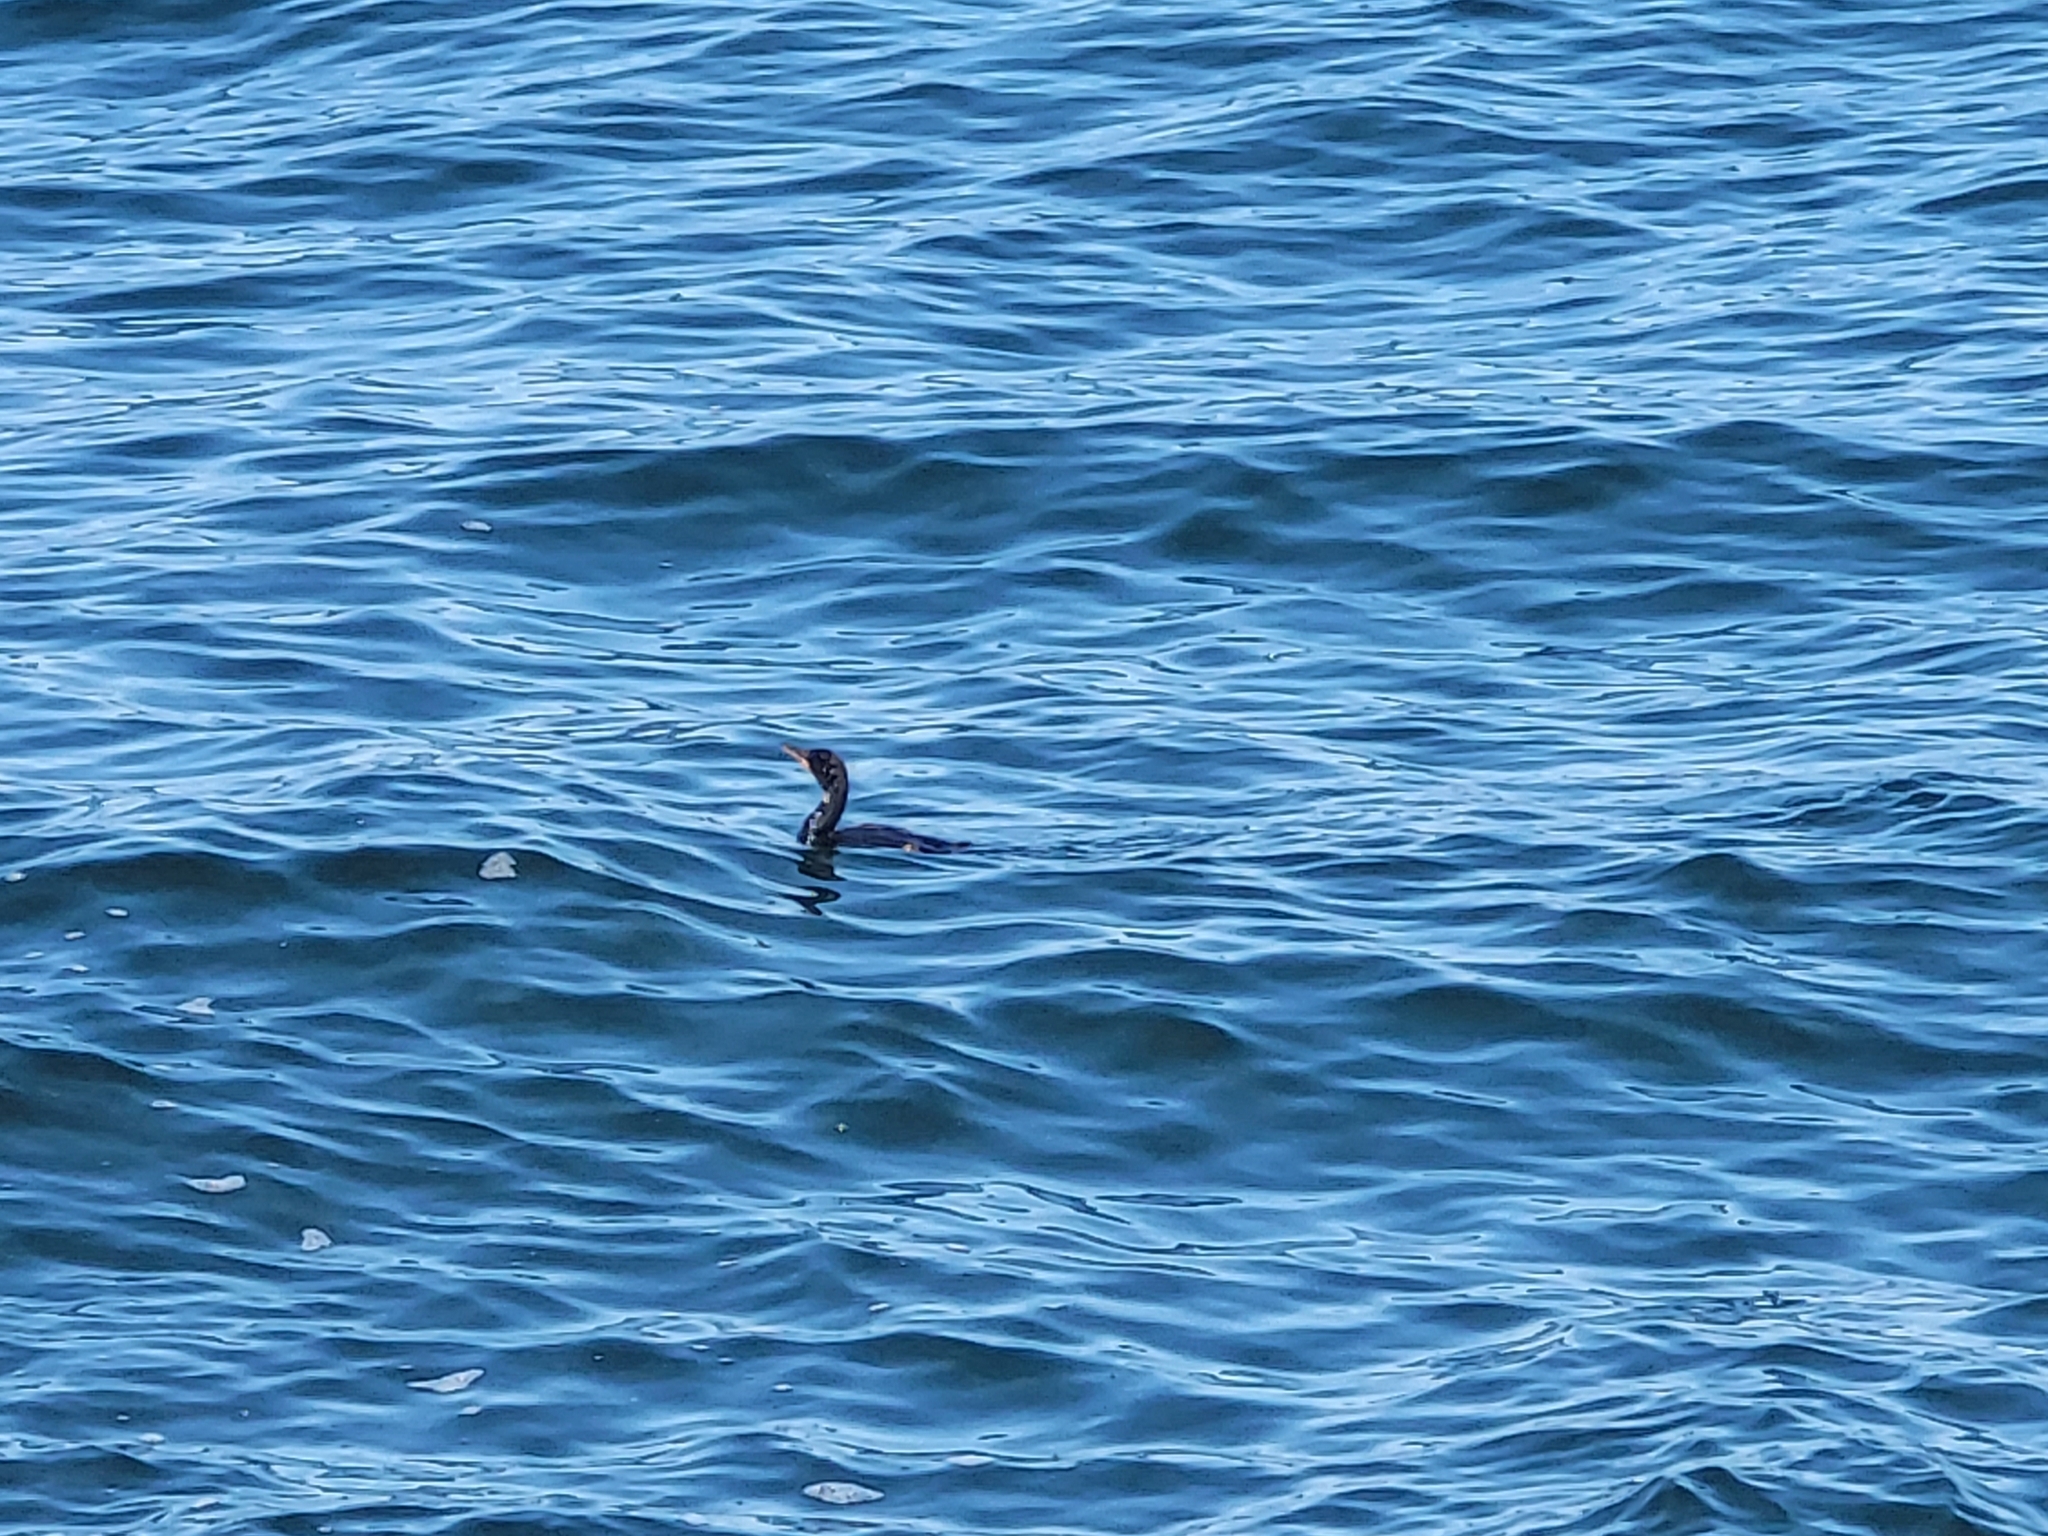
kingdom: Animalia
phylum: Chordata
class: Aves
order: Suliformes
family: Phalacrocoracidae
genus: Phalacrocorax
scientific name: Phalacrocorax auritus
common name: Double-crested cormorant
